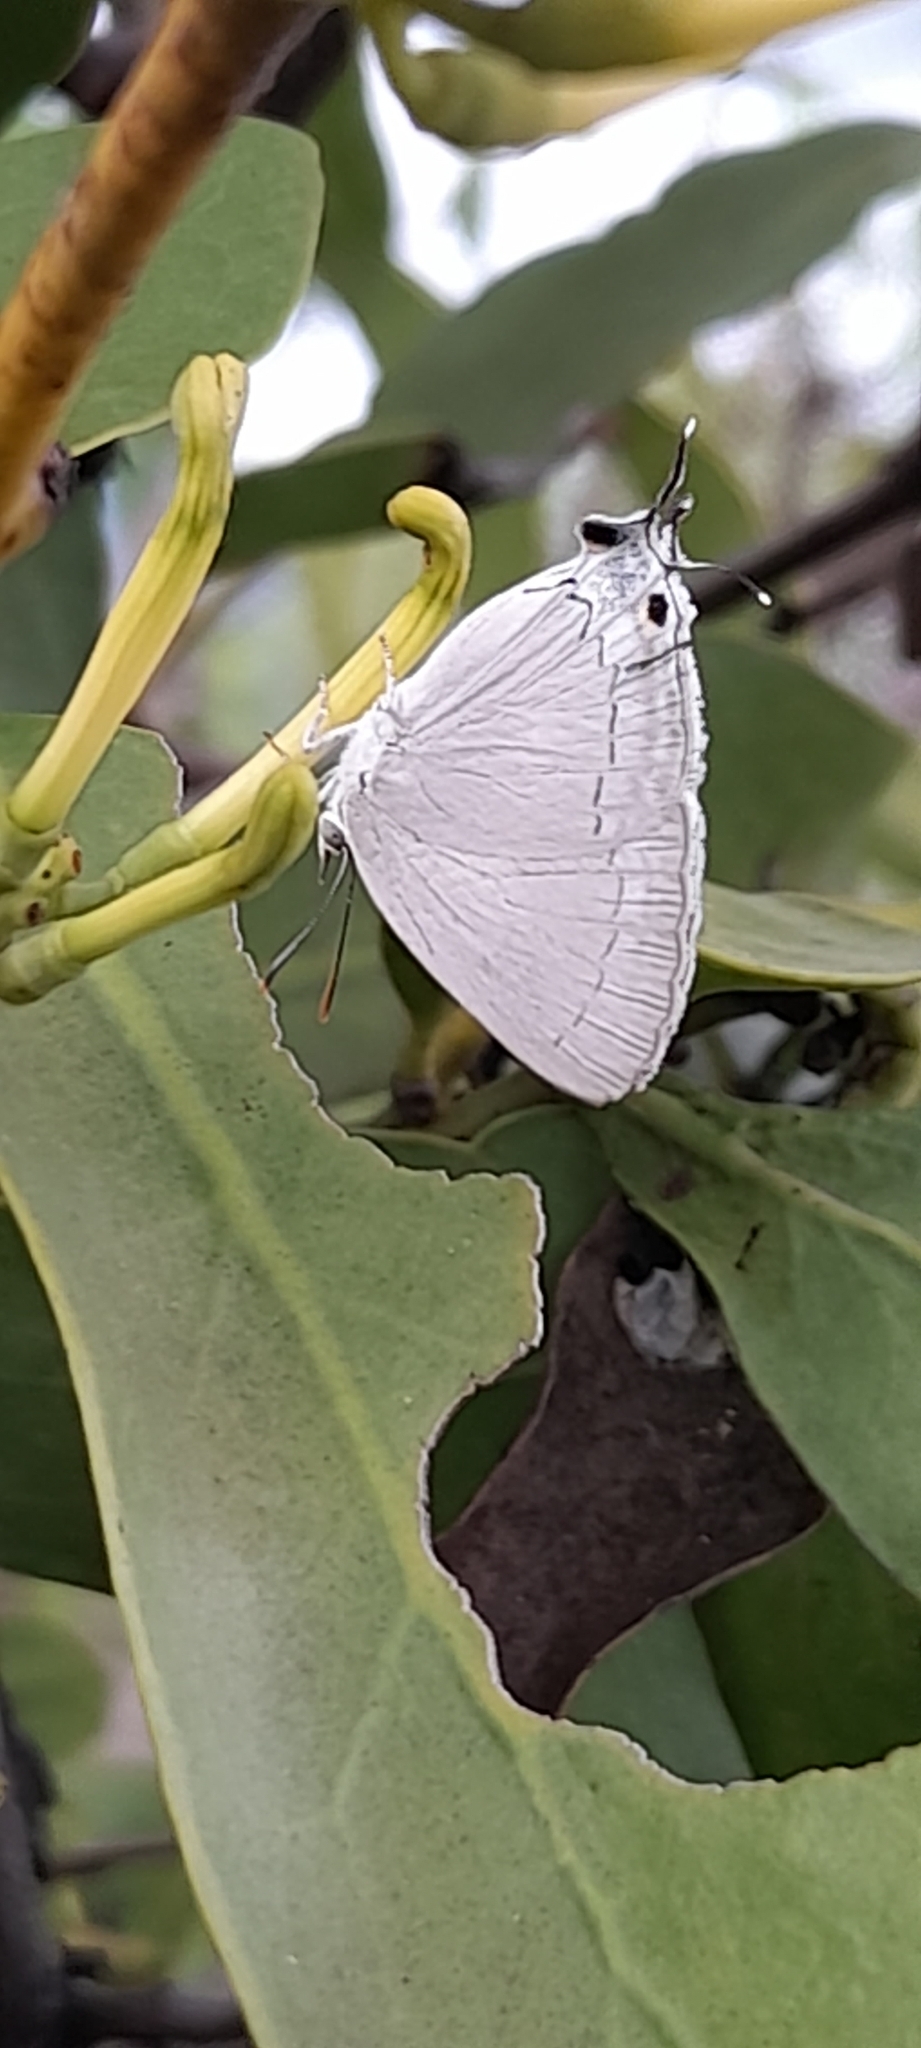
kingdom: Animalia
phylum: Arthropoda
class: Insecta
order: Lepidoptera
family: Lycaenidae
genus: Tajuria
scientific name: Tajuria jehana
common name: Plains blue royal
